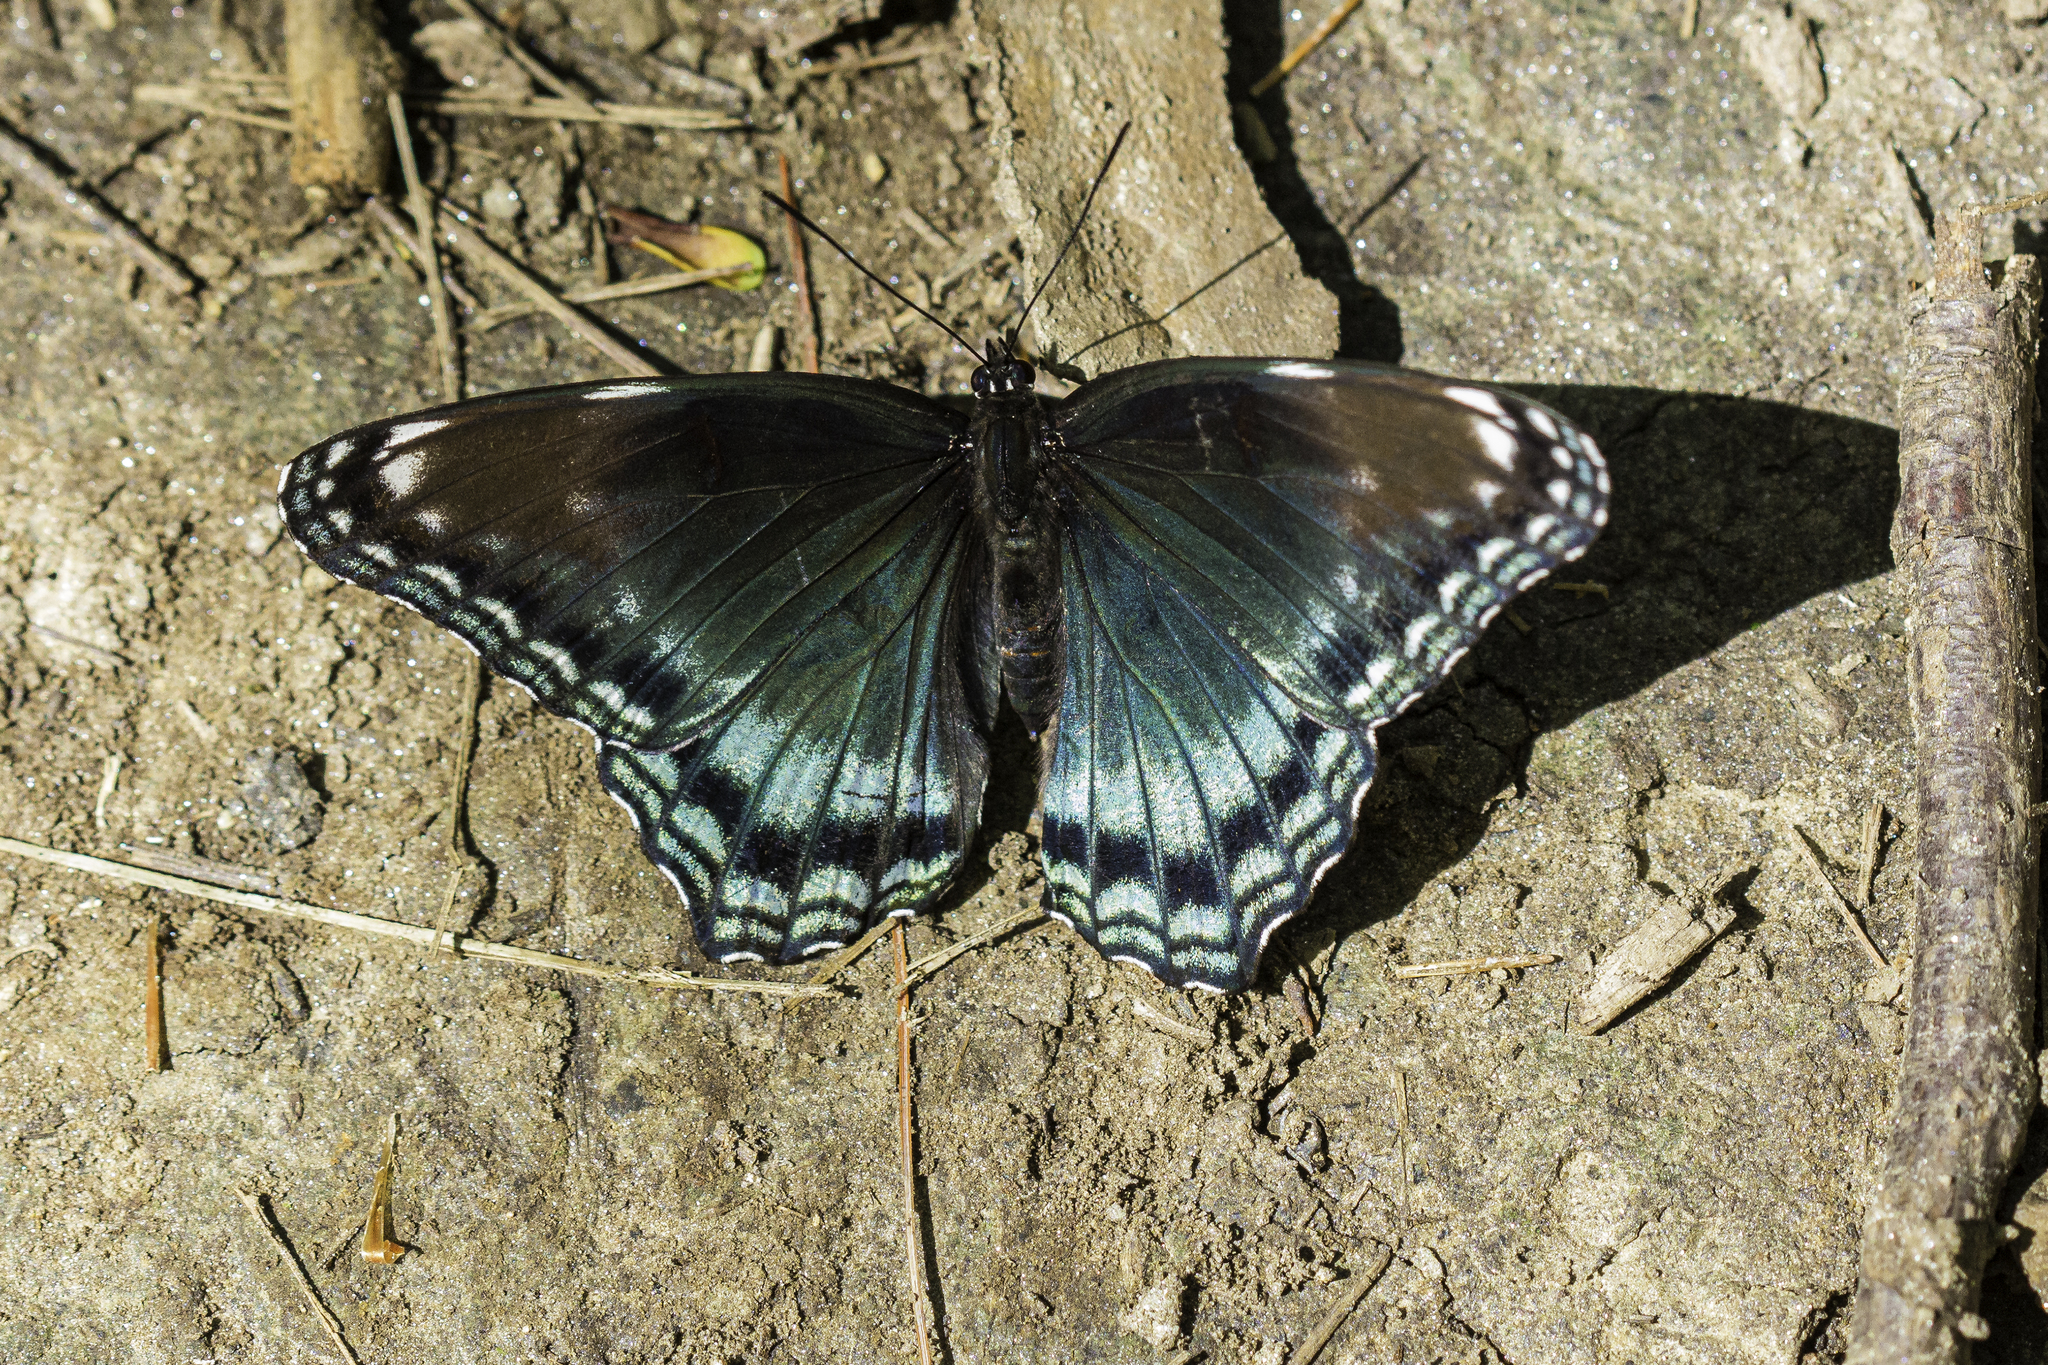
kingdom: Animalia
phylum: Arthropoda
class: Insecta
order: Lepidoptera
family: Nymphalidae
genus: Limenitis
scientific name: Limenitis arthemis
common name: Red-spotted admiral
